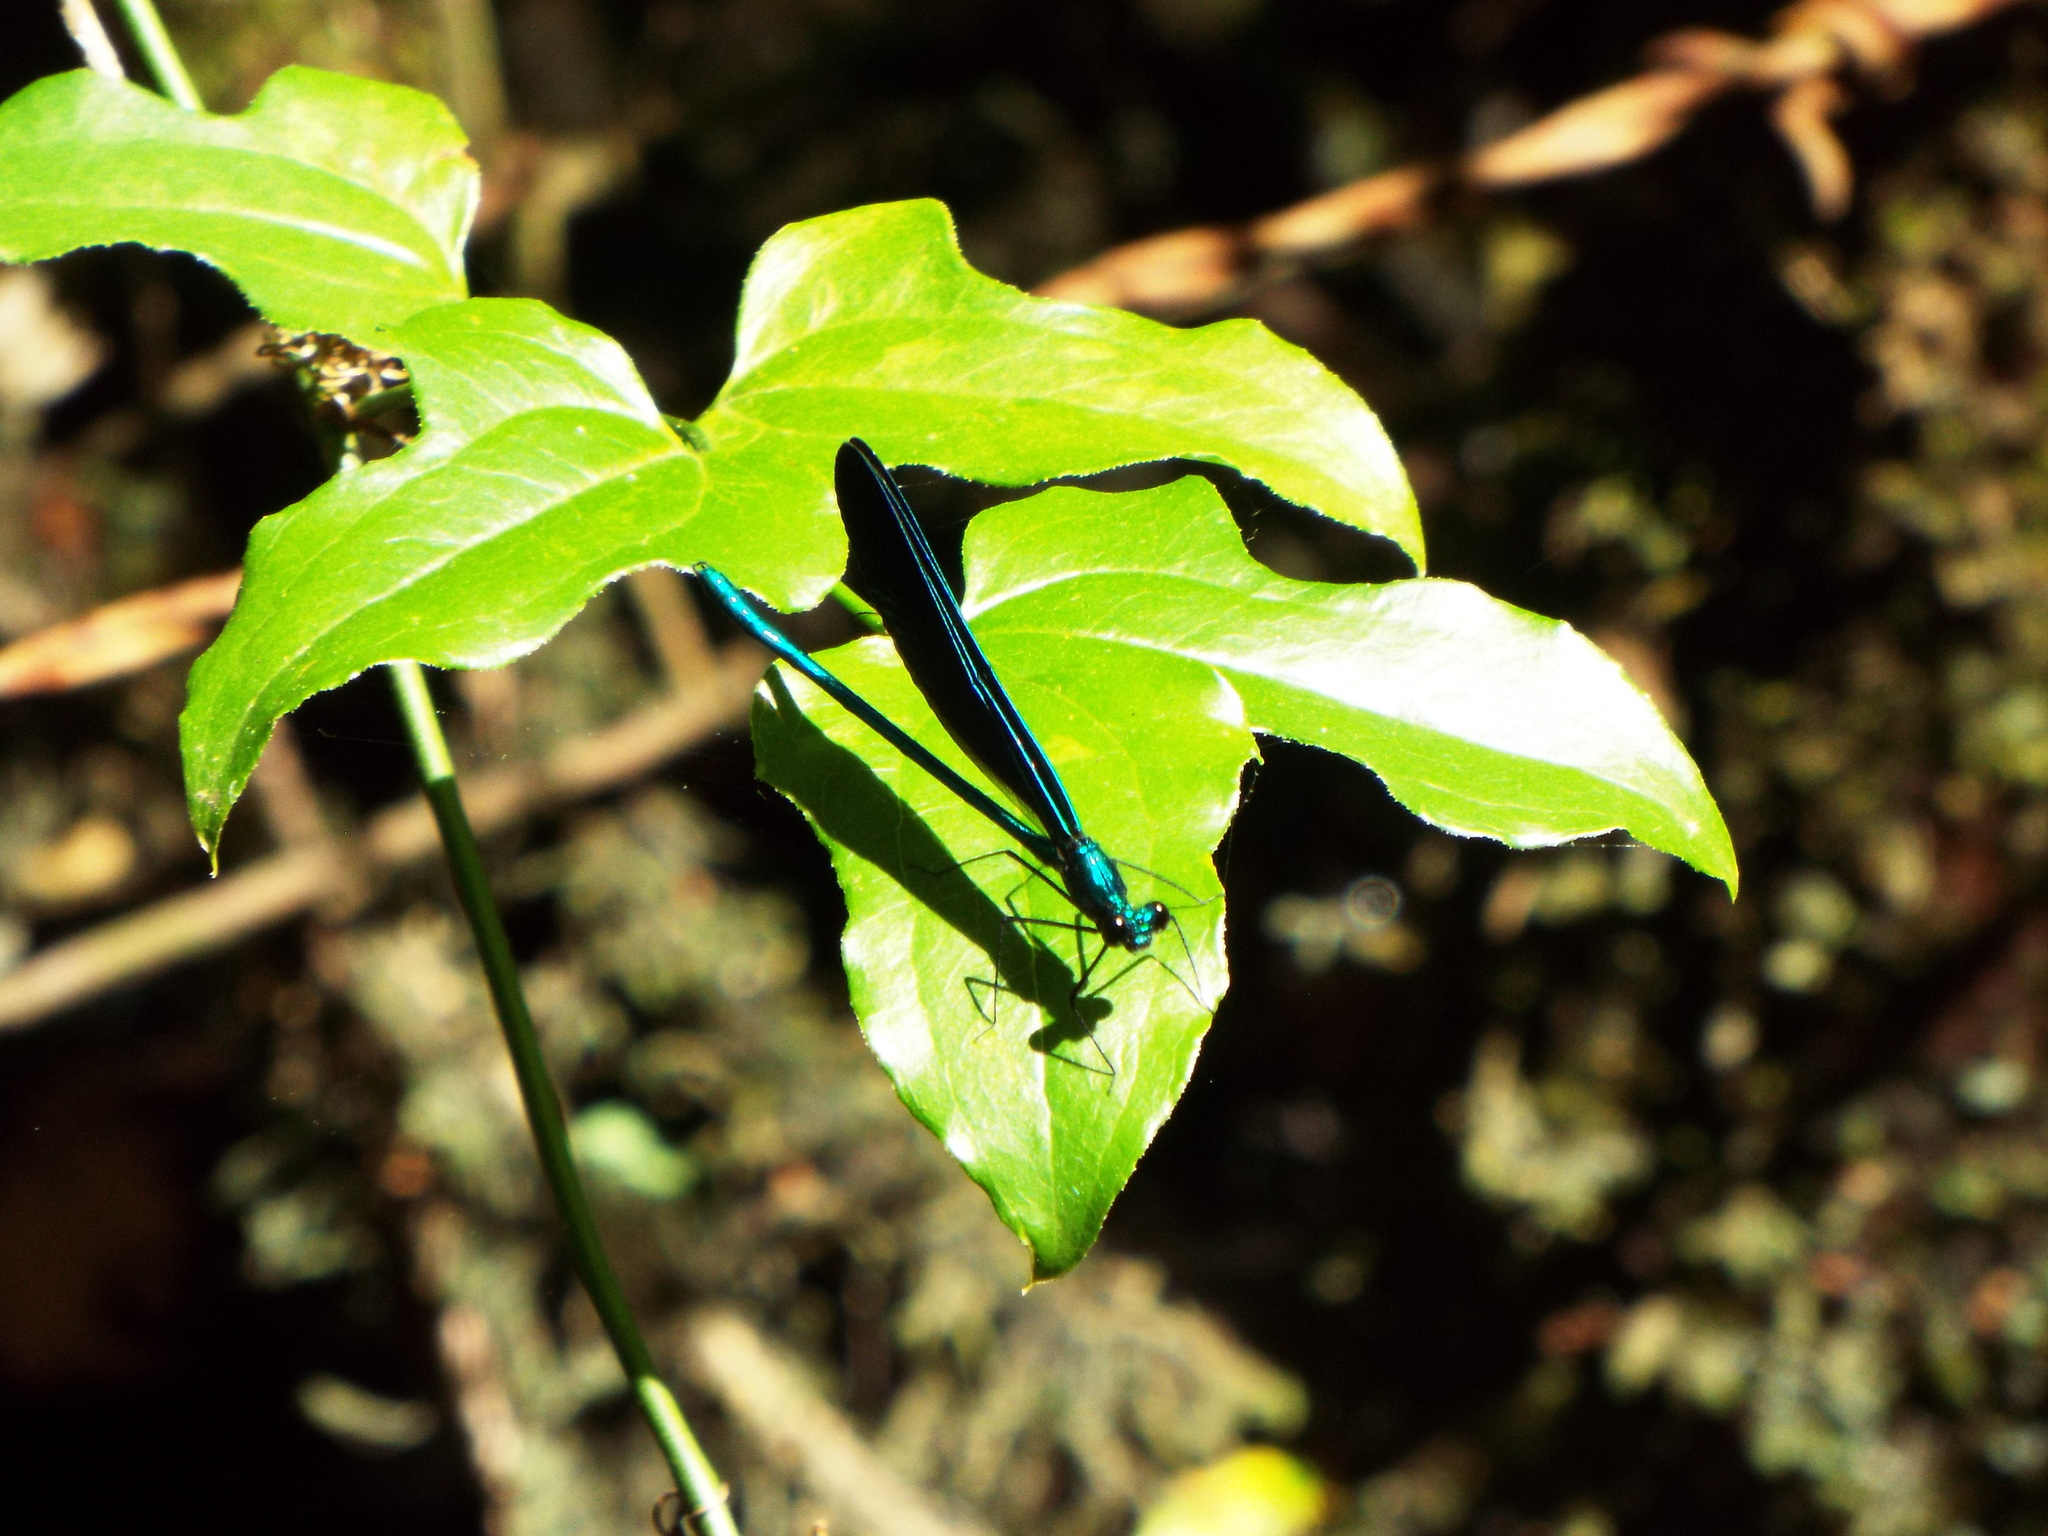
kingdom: Animalia
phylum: Arthropoda
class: Insecta
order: Odonata
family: Calopterygidae
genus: Calopteryx
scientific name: Calopteryx maculata
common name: Ebony jewelwing
